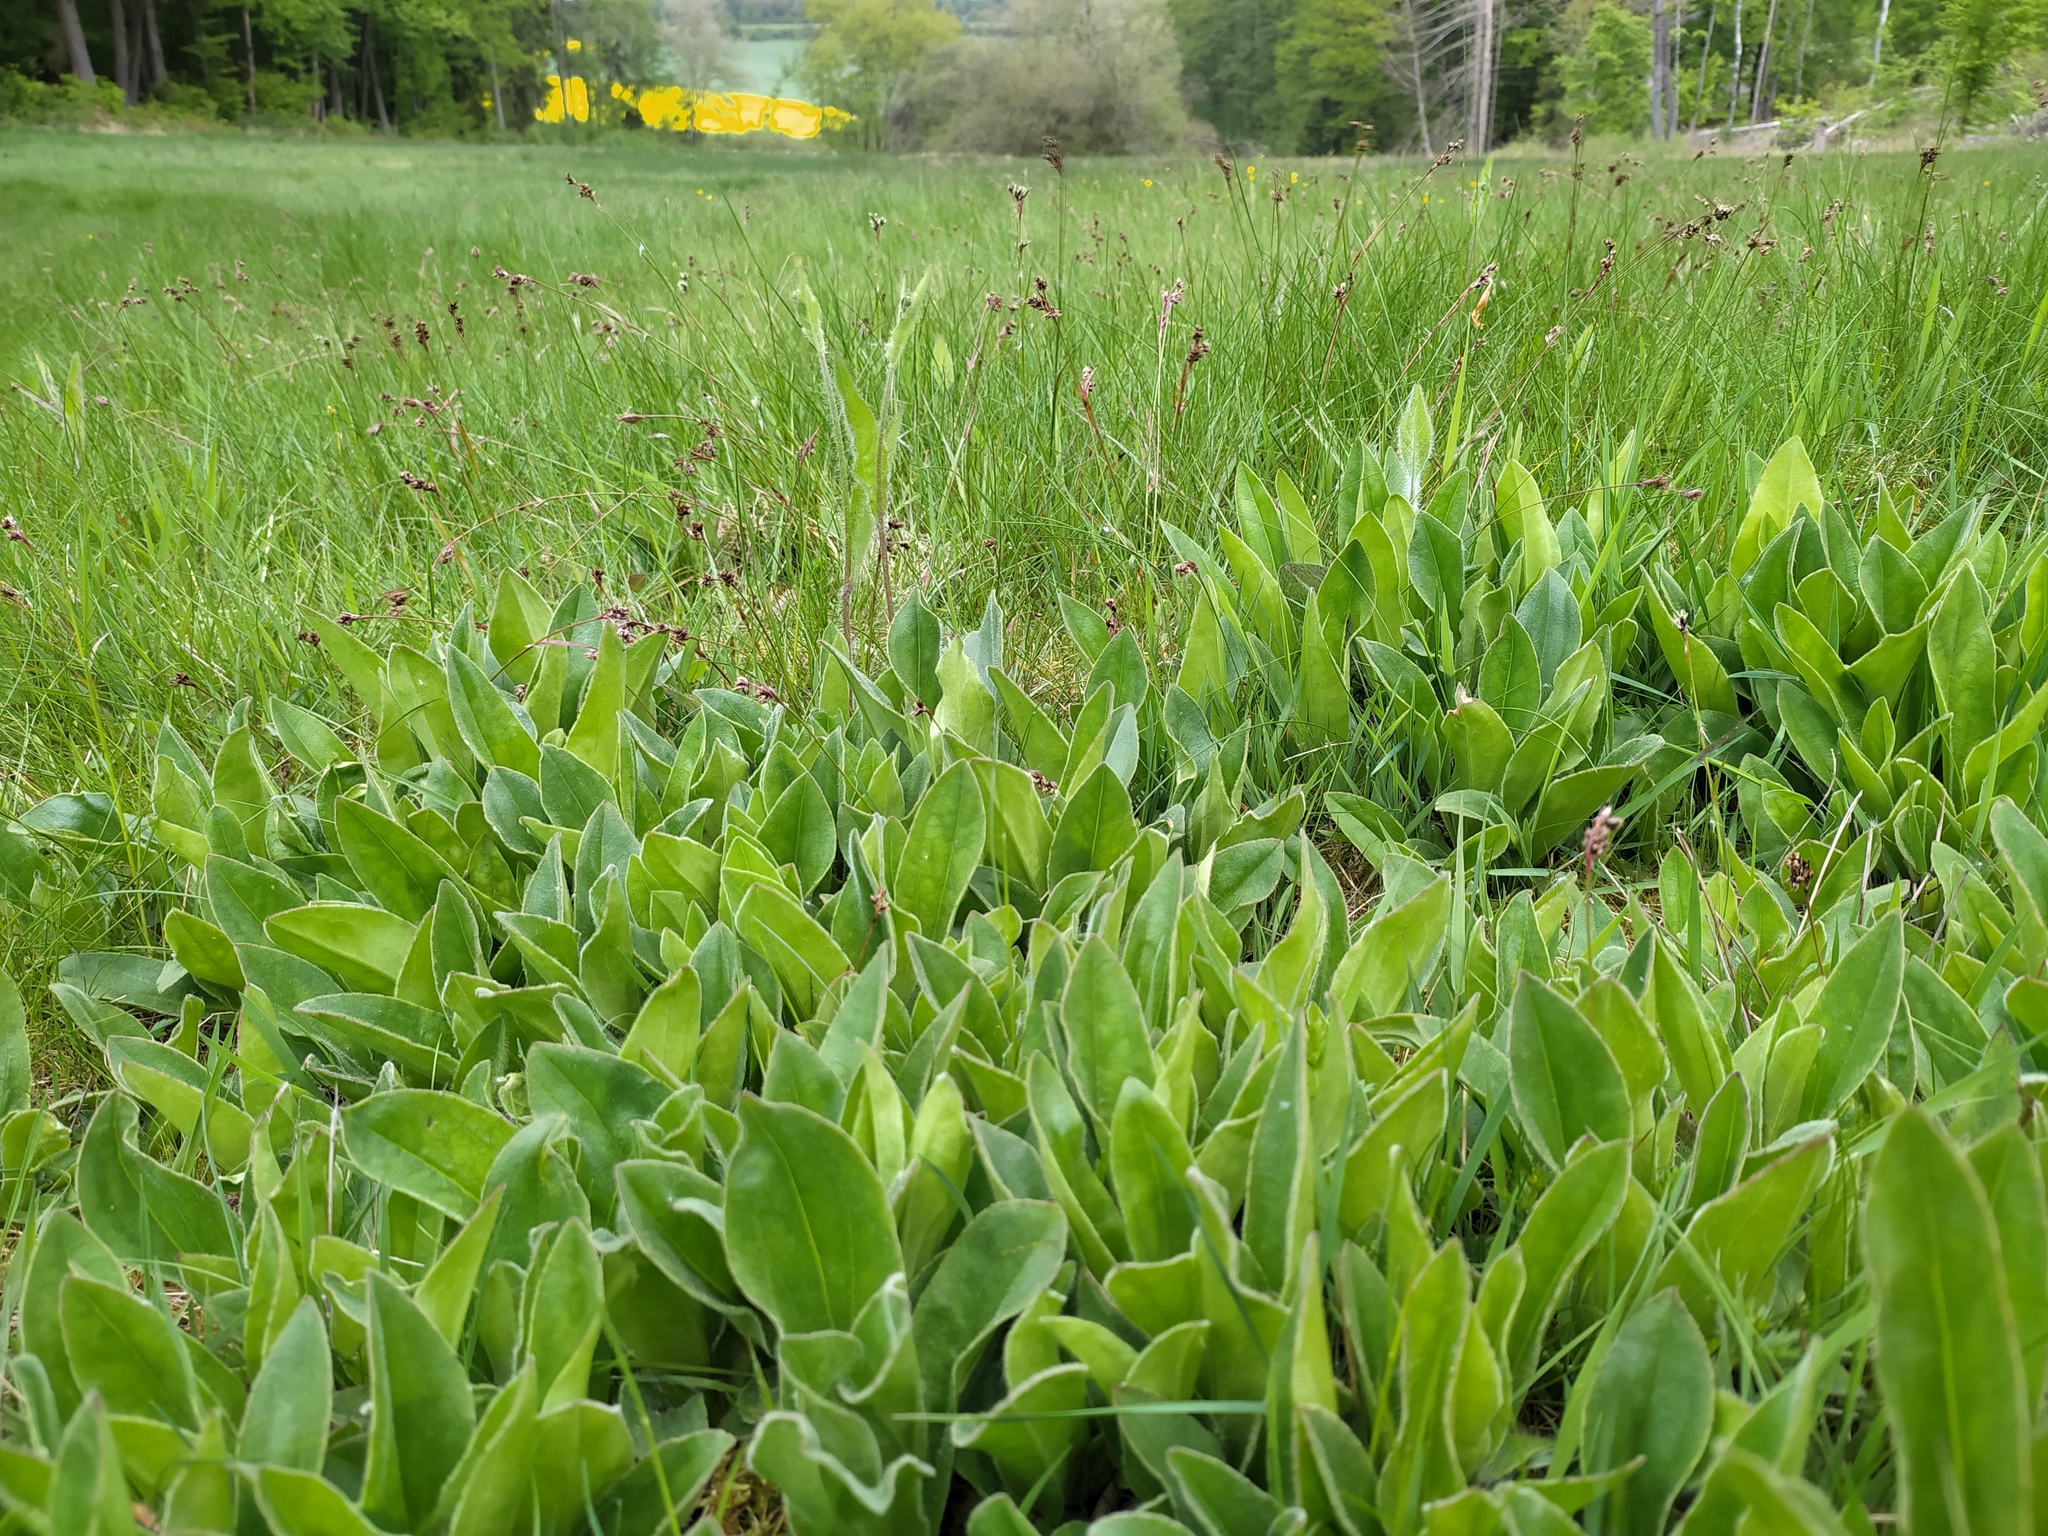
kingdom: Plantae
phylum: Tracheophyta
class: Magnoliopsida
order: Asterales
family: Asteraceae
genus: Arnica
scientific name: Arnica montana
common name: Leopard's bane
